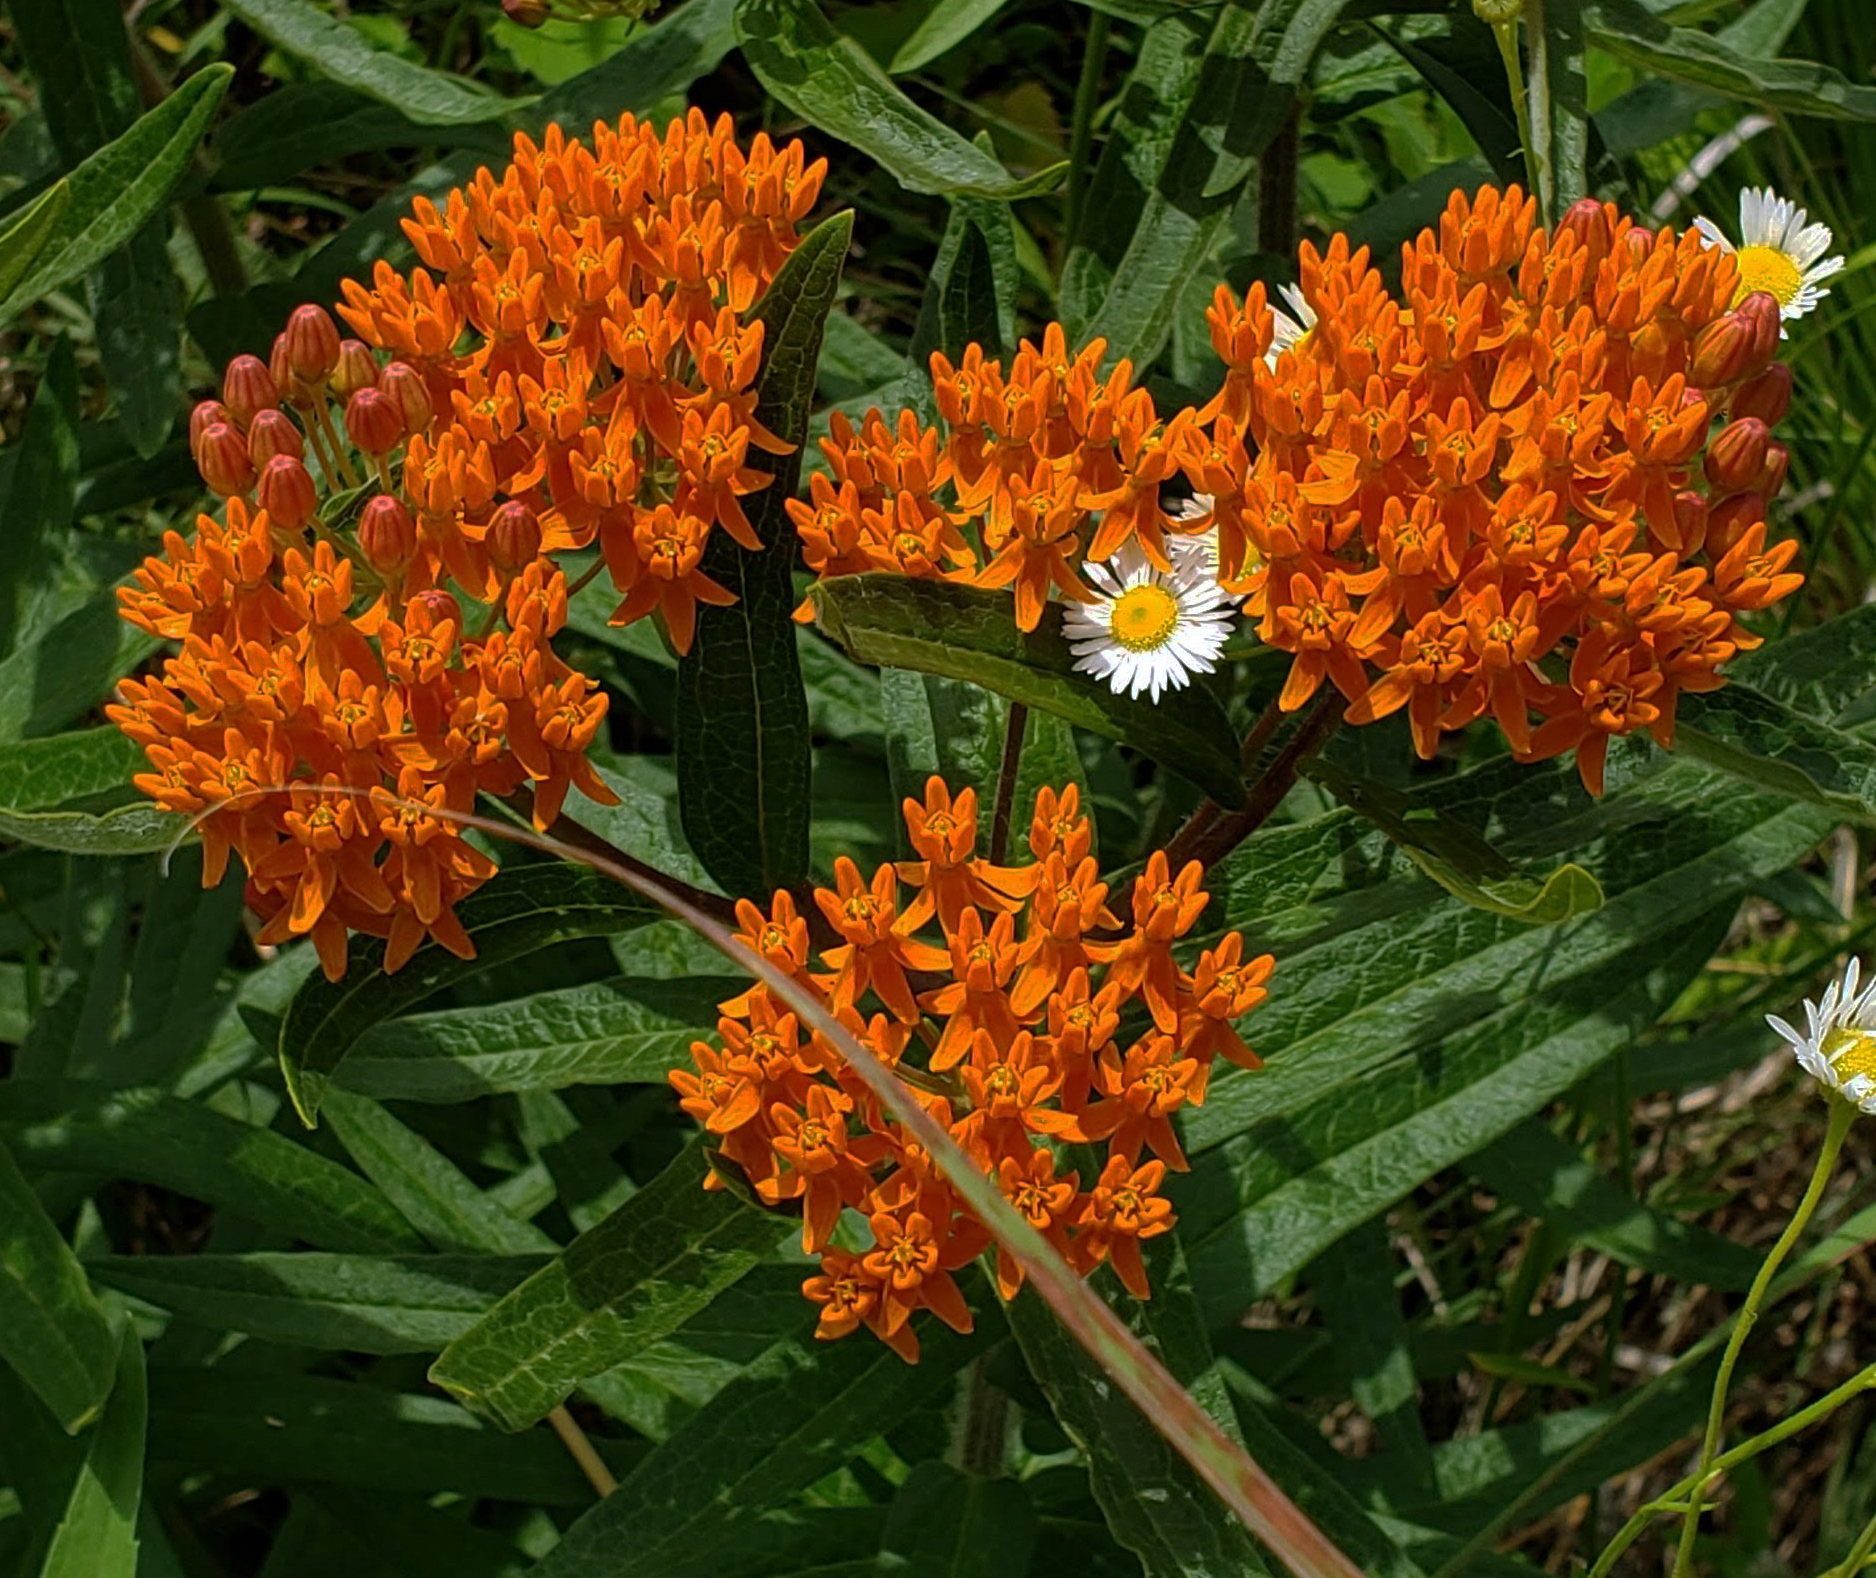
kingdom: Plantae
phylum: Tracheophyta
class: Magnoliopsida
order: Gentianales
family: Apocynaceae
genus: Asclepias
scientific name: Asclepias tuberosa
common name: Butterfly milkweed
